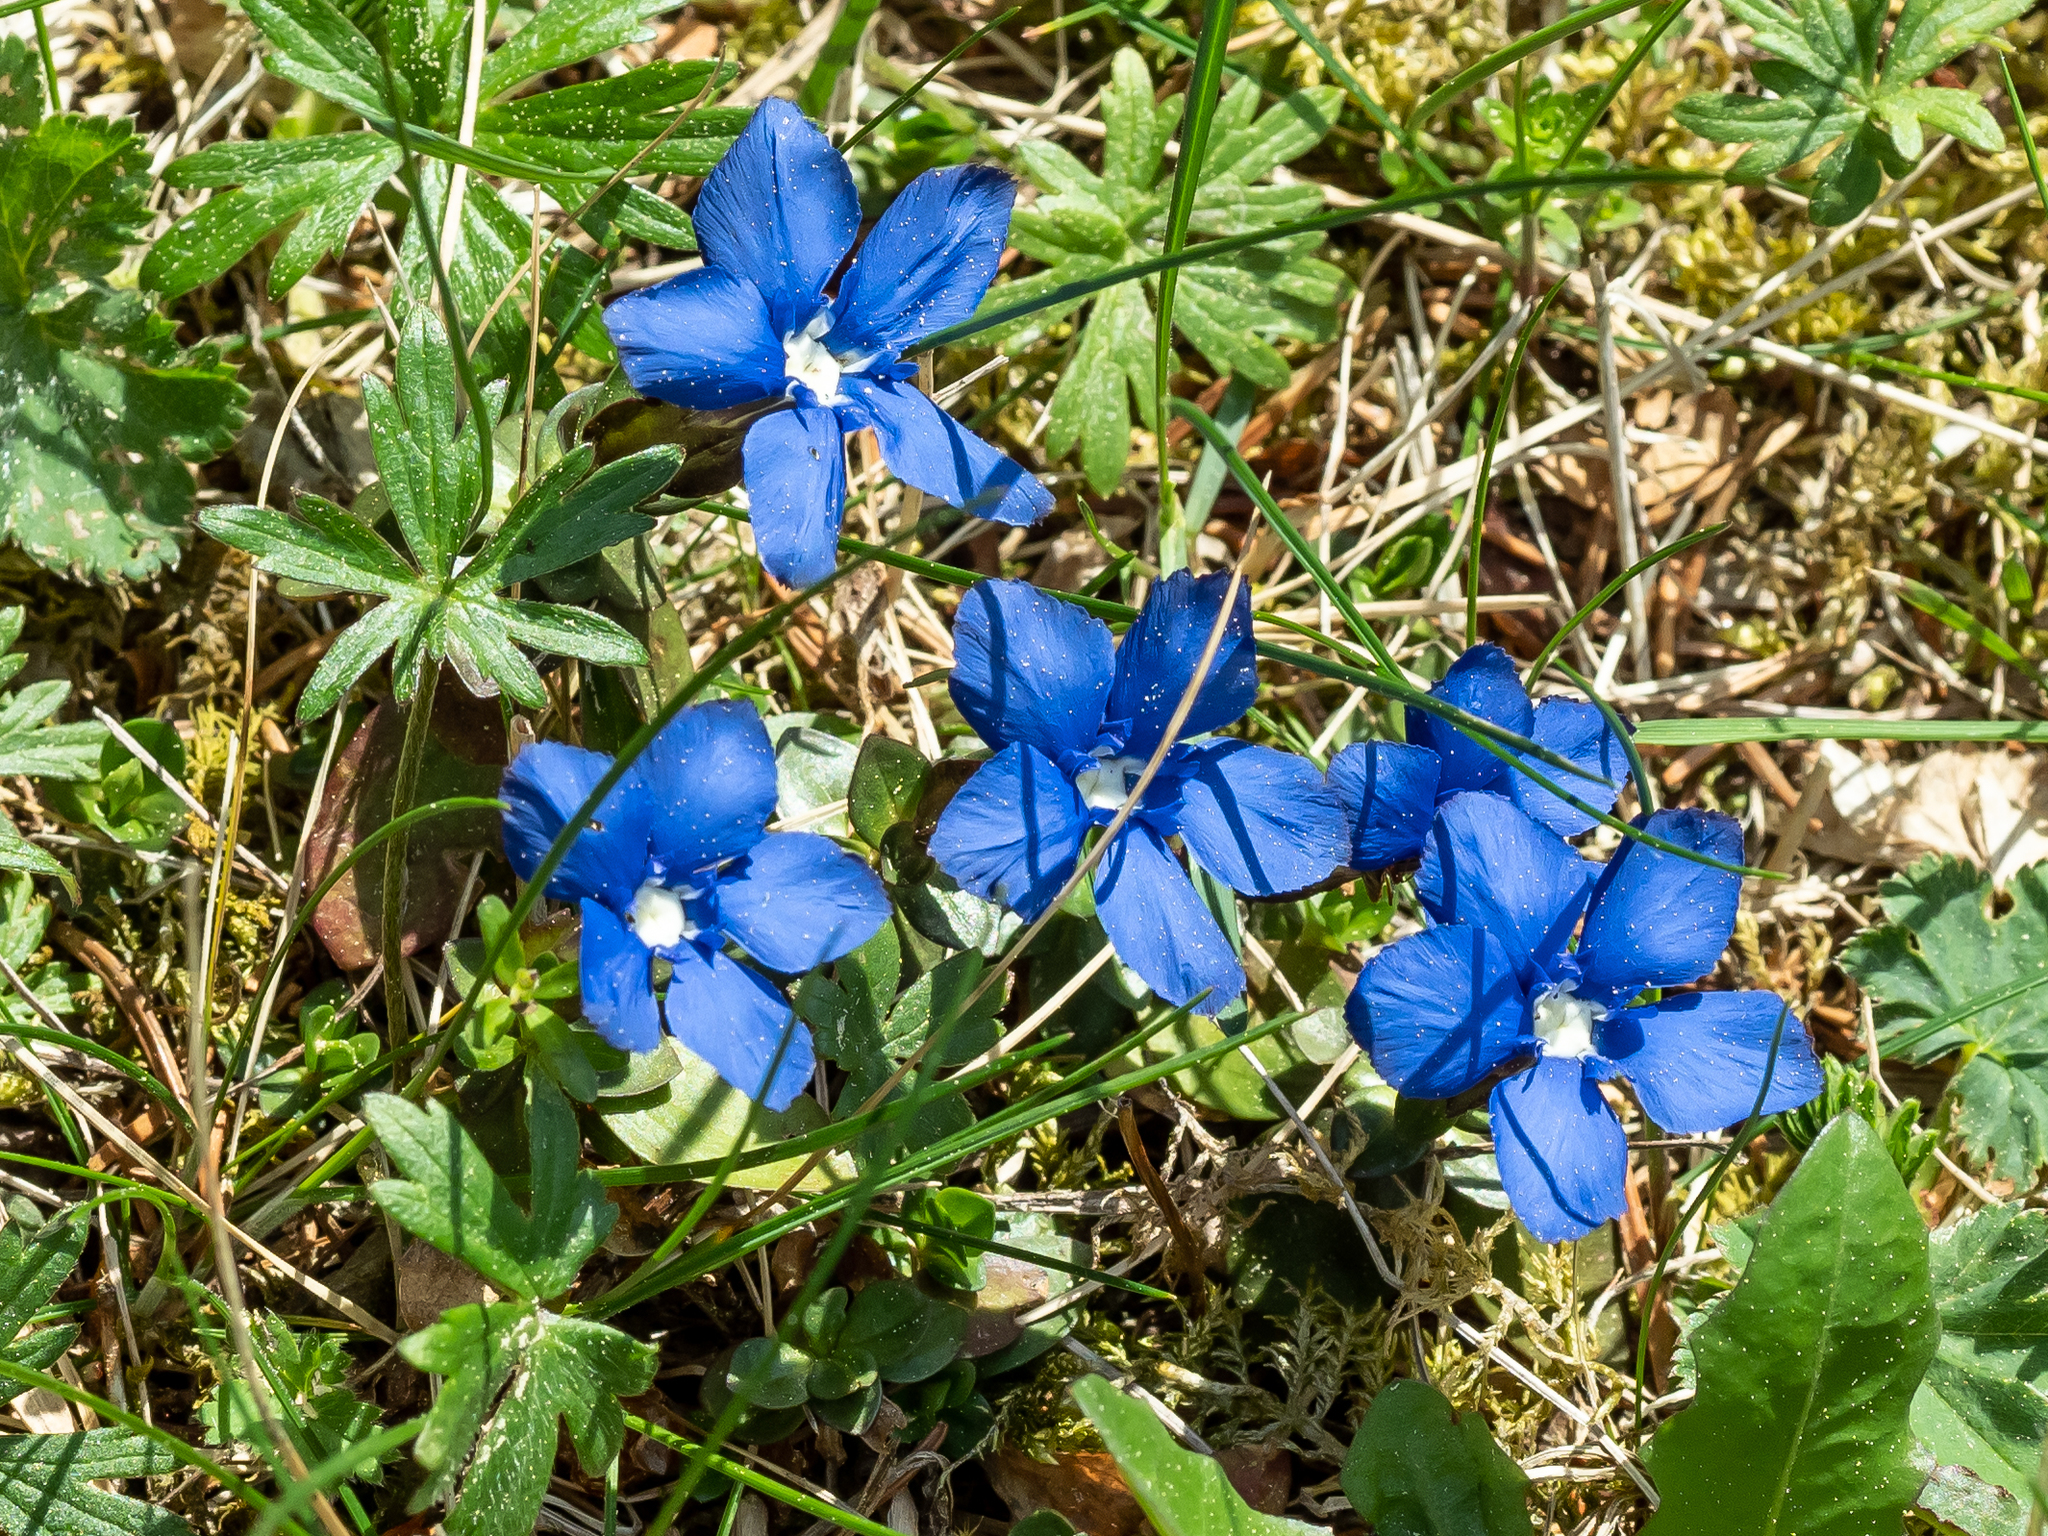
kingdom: Plantae
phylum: Tracheophyta
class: Magnoliopsida
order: Gentianales
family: Gentianaceae
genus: Gentiana
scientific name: Gentiana verna
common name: Spring gentian
